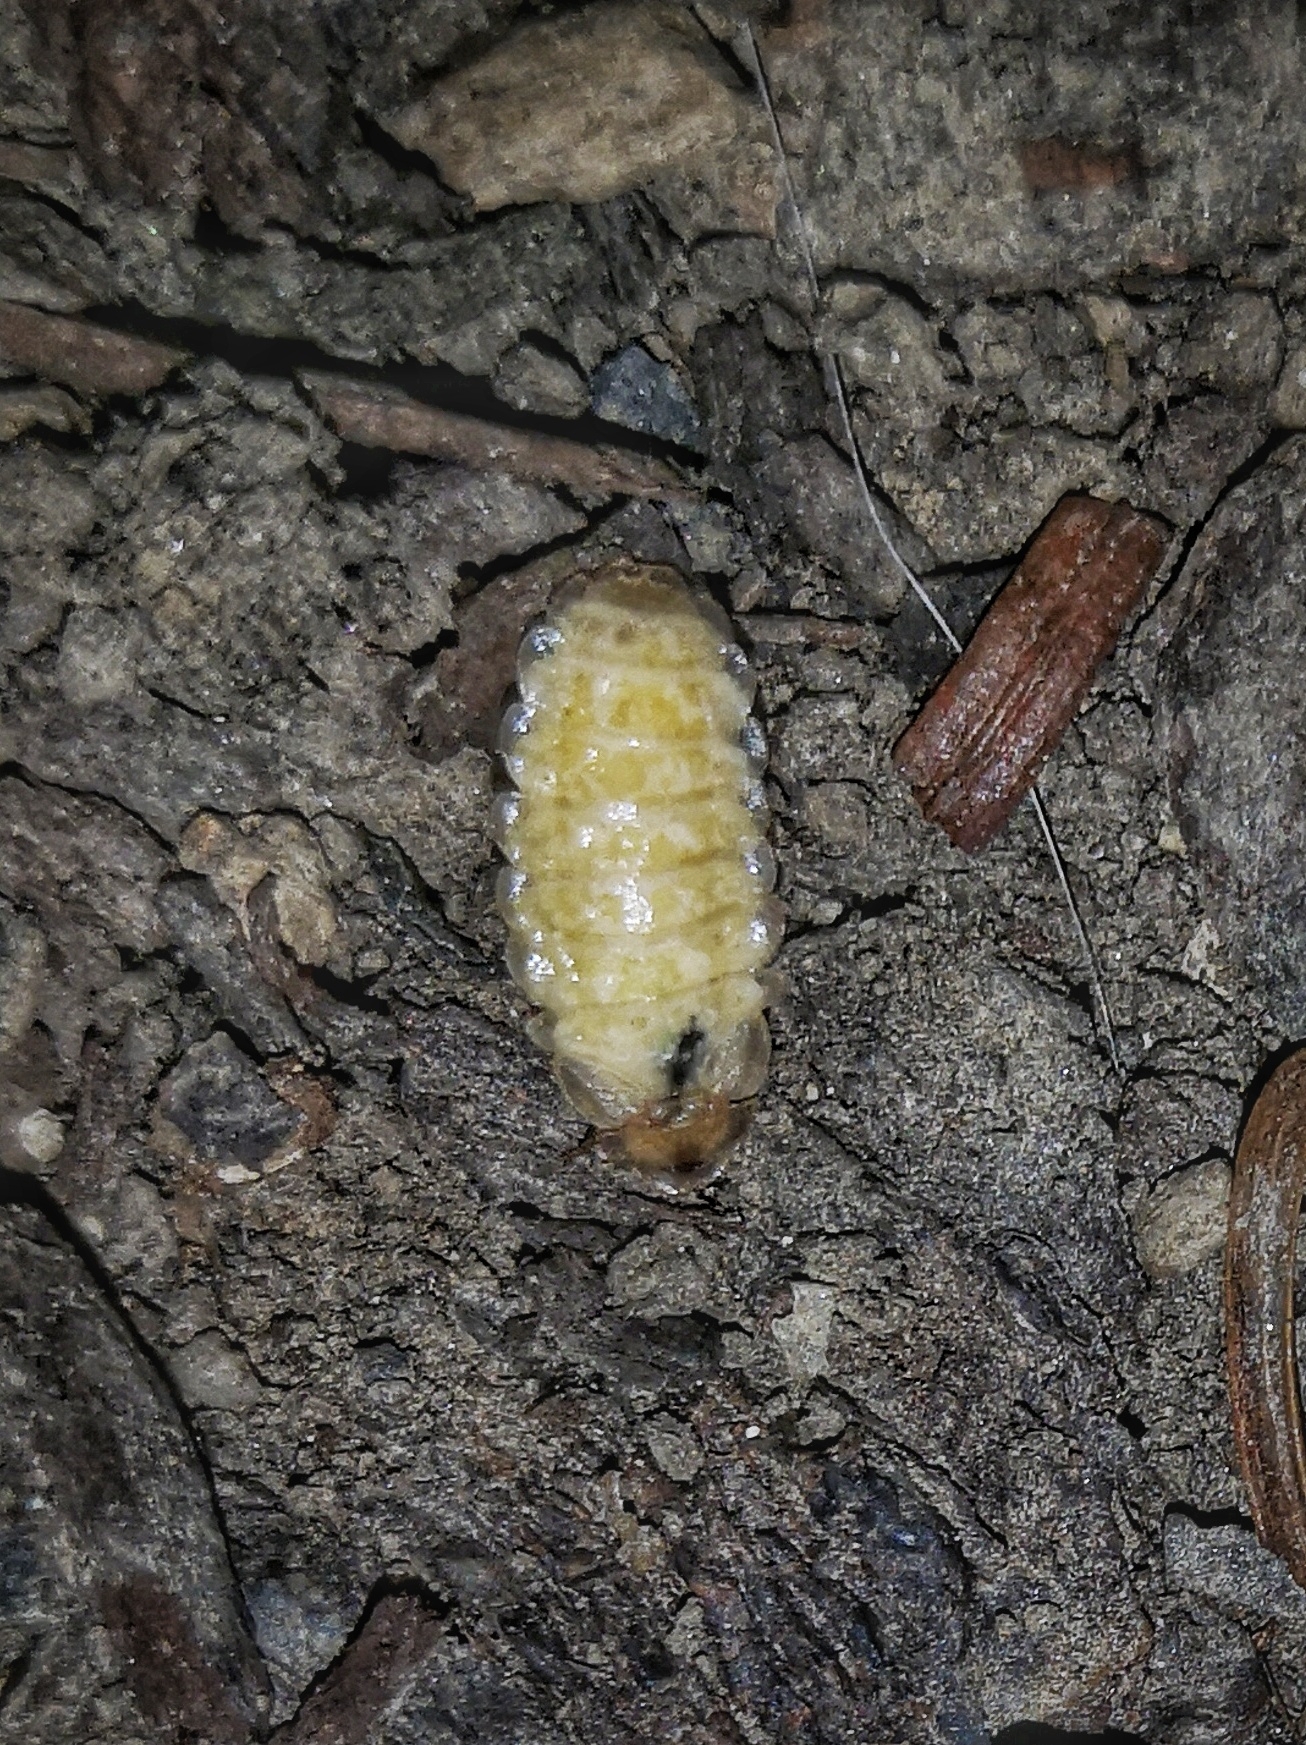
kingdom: Animalia
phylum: Arthropoda
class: Insecta
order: Coleoptera
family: Lampyridae
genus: Lamprohiza
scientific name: Lamprohiza splendidula
